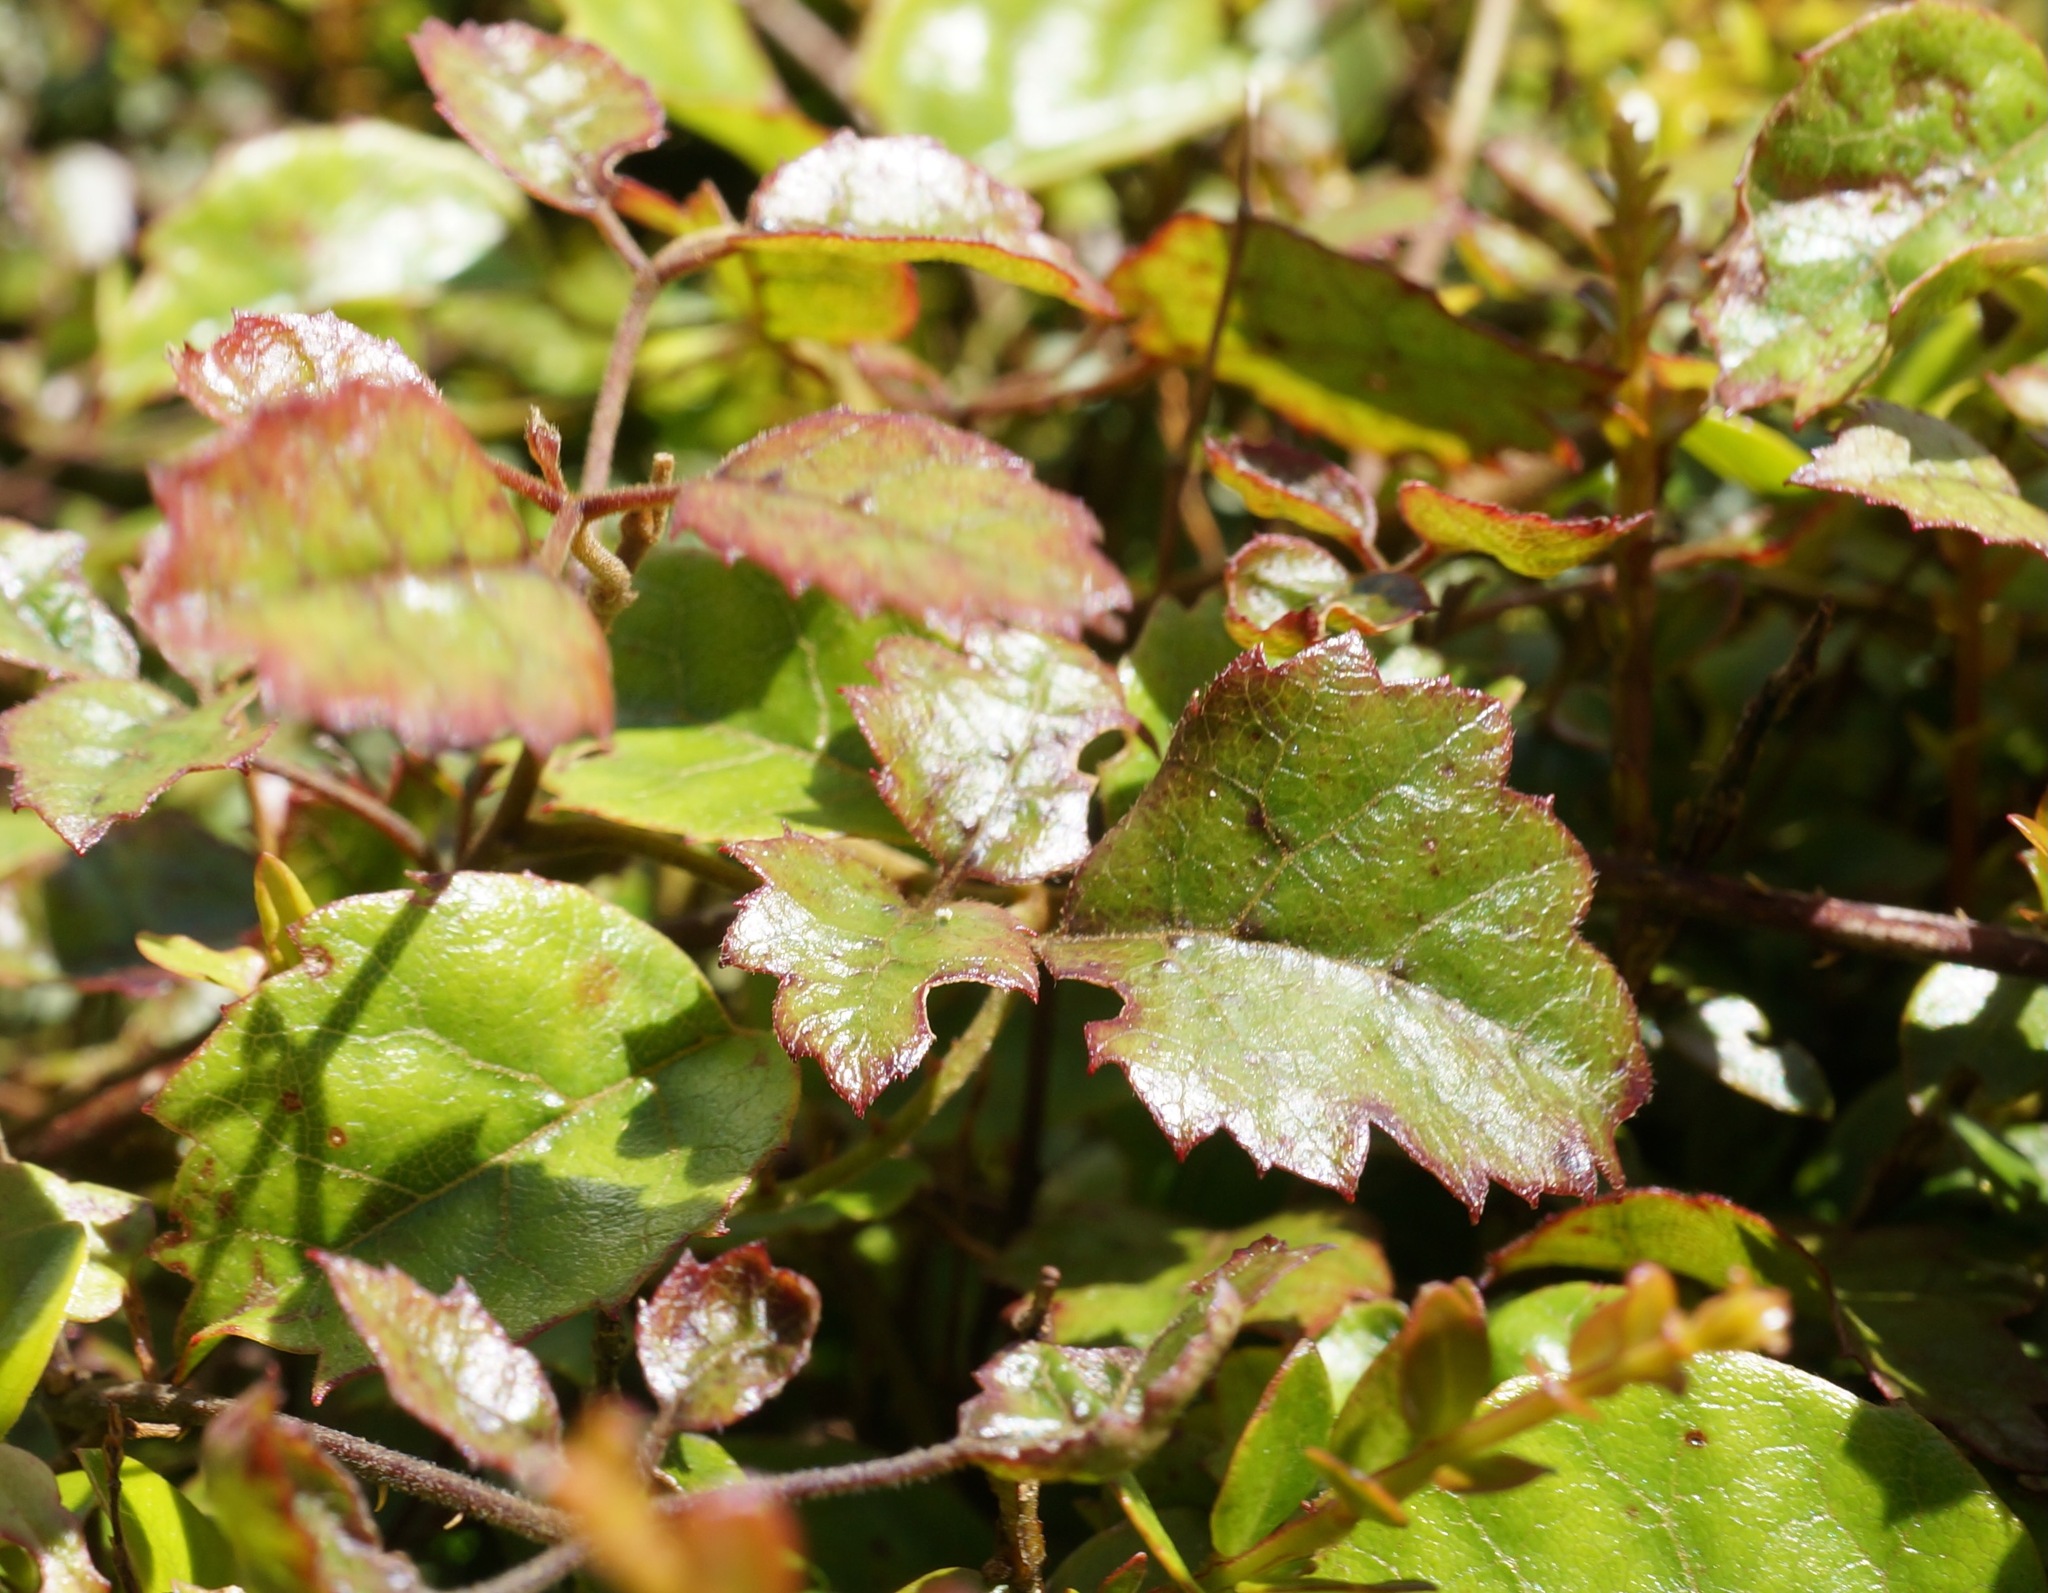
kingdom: Plantae
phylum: Tracheophyta
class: Magnoliopsida
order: Rosales
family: Rosaceae
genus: Rubus
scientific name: Rubus australis
